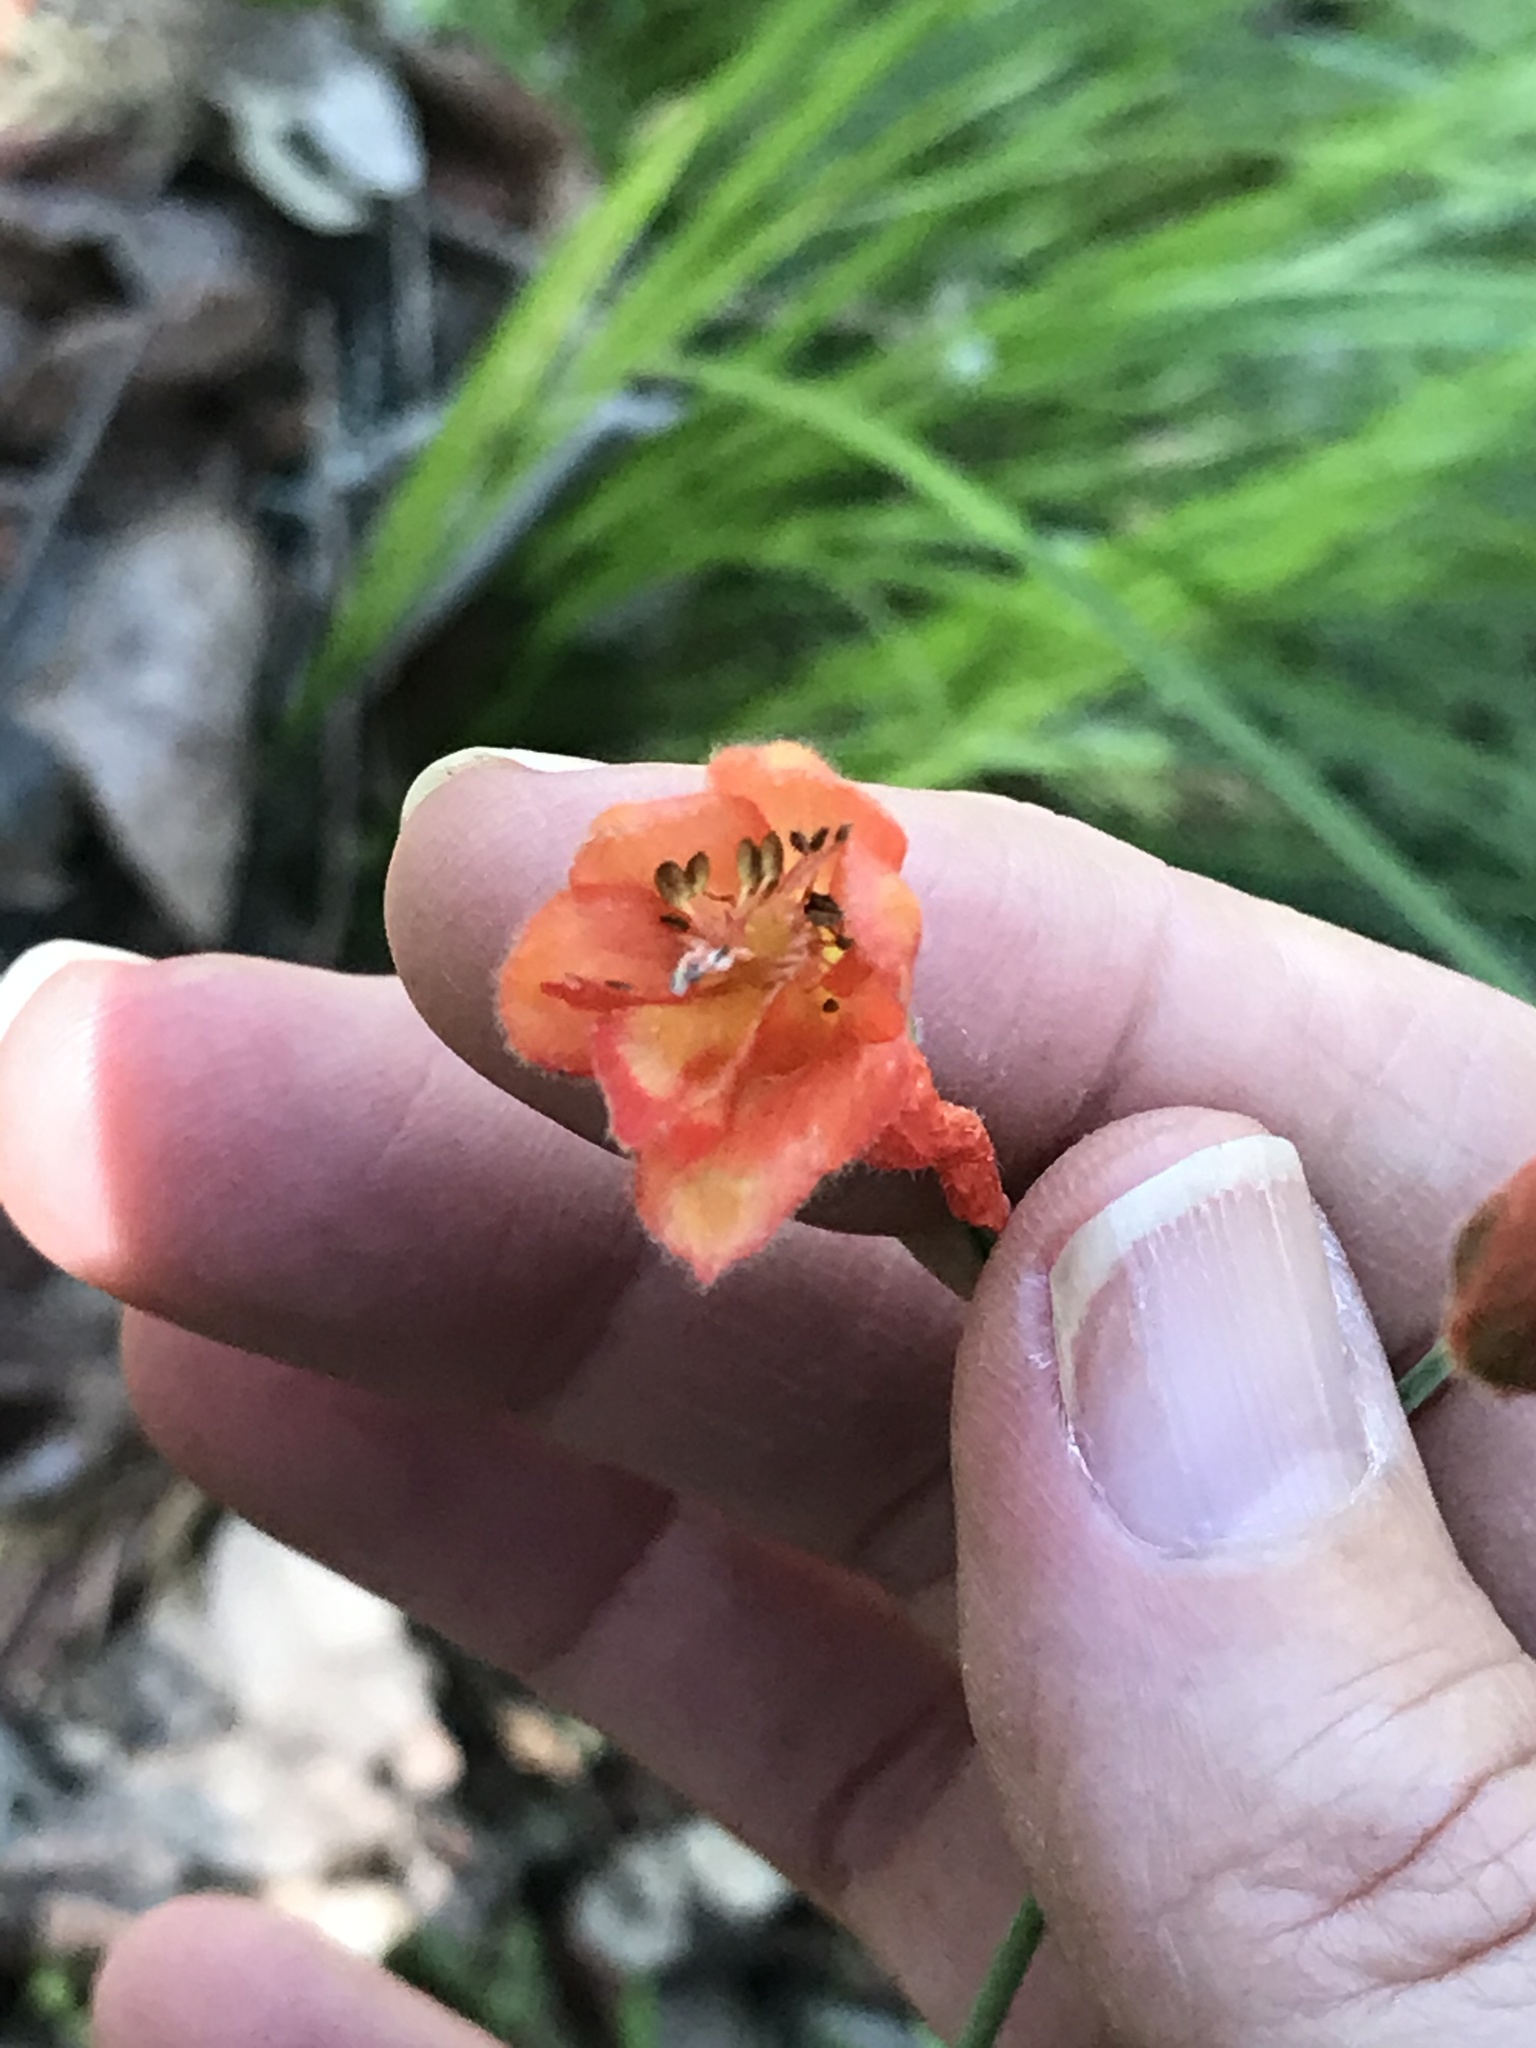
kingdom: Plantae
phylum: Tracheophyta
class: Magnoliopsida
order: Ranunculales
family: Ranunculaceae
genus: Delphinium
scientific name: Delphinium nudicaule
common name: Red larkspur
